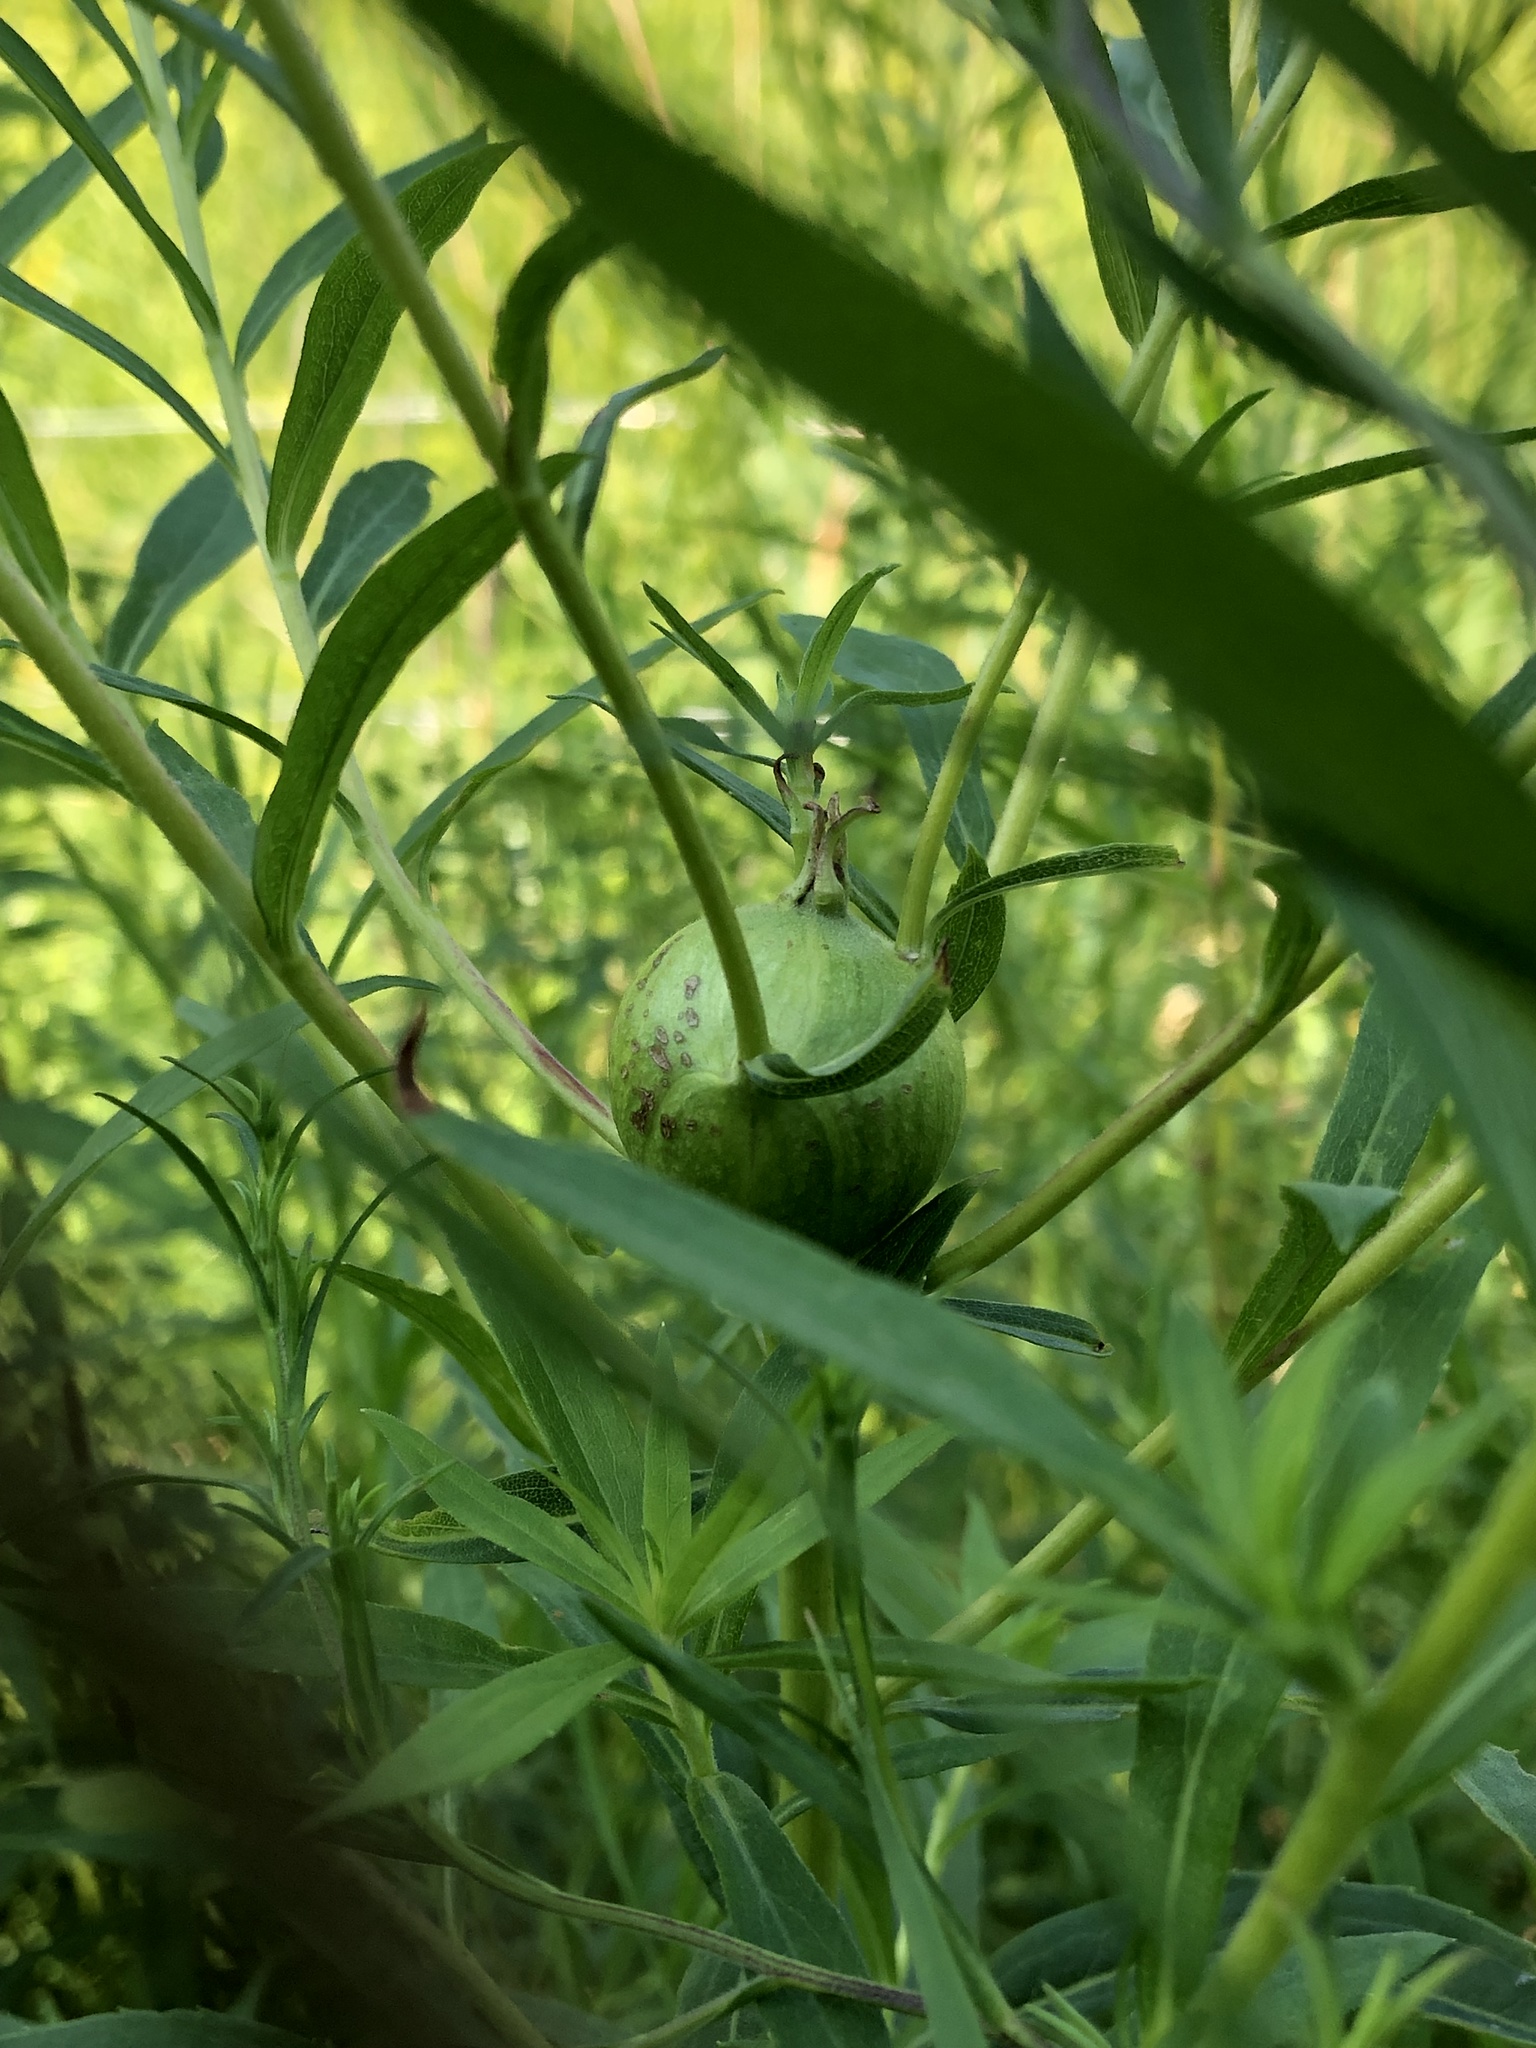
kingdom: Animalia
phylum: Arthropoda
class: Insecta
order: Diptera
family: Tephritidae
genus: Eurosta
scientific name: Eurosta solidaginis
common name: Goldenrod gall fly
